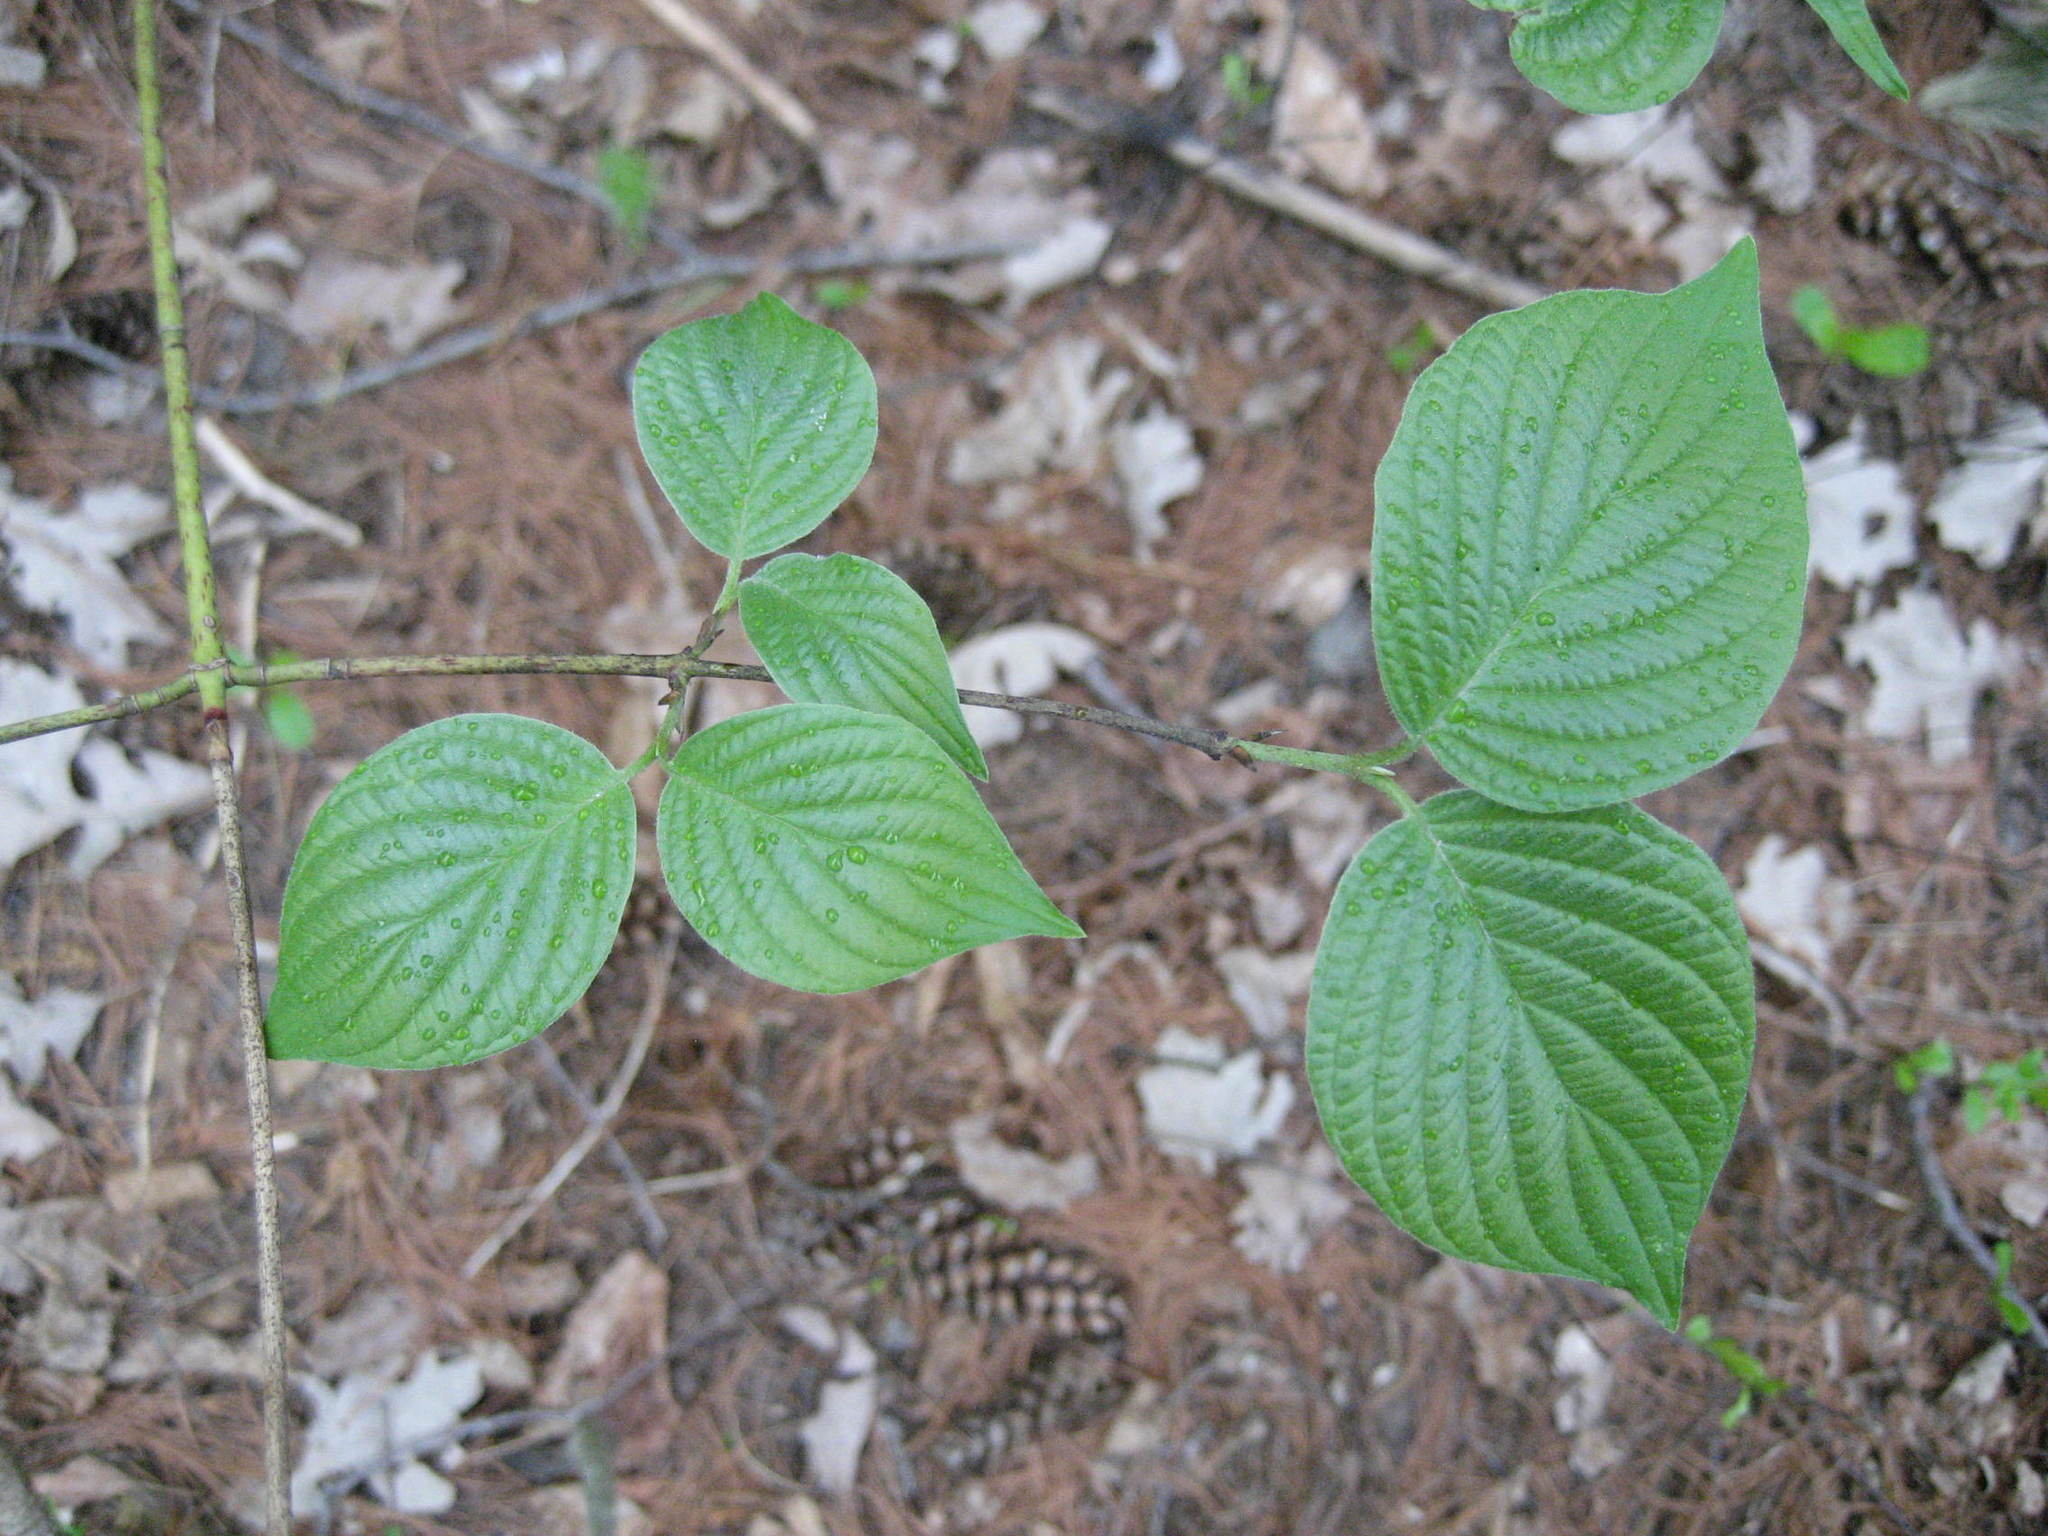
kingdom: Plantae
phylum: Tracheophyta
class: Magnoliopsida
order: Cornales
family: Cornaceae
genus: Cornus
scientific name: Cornus rugosa
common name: Round-leaf dogwood
